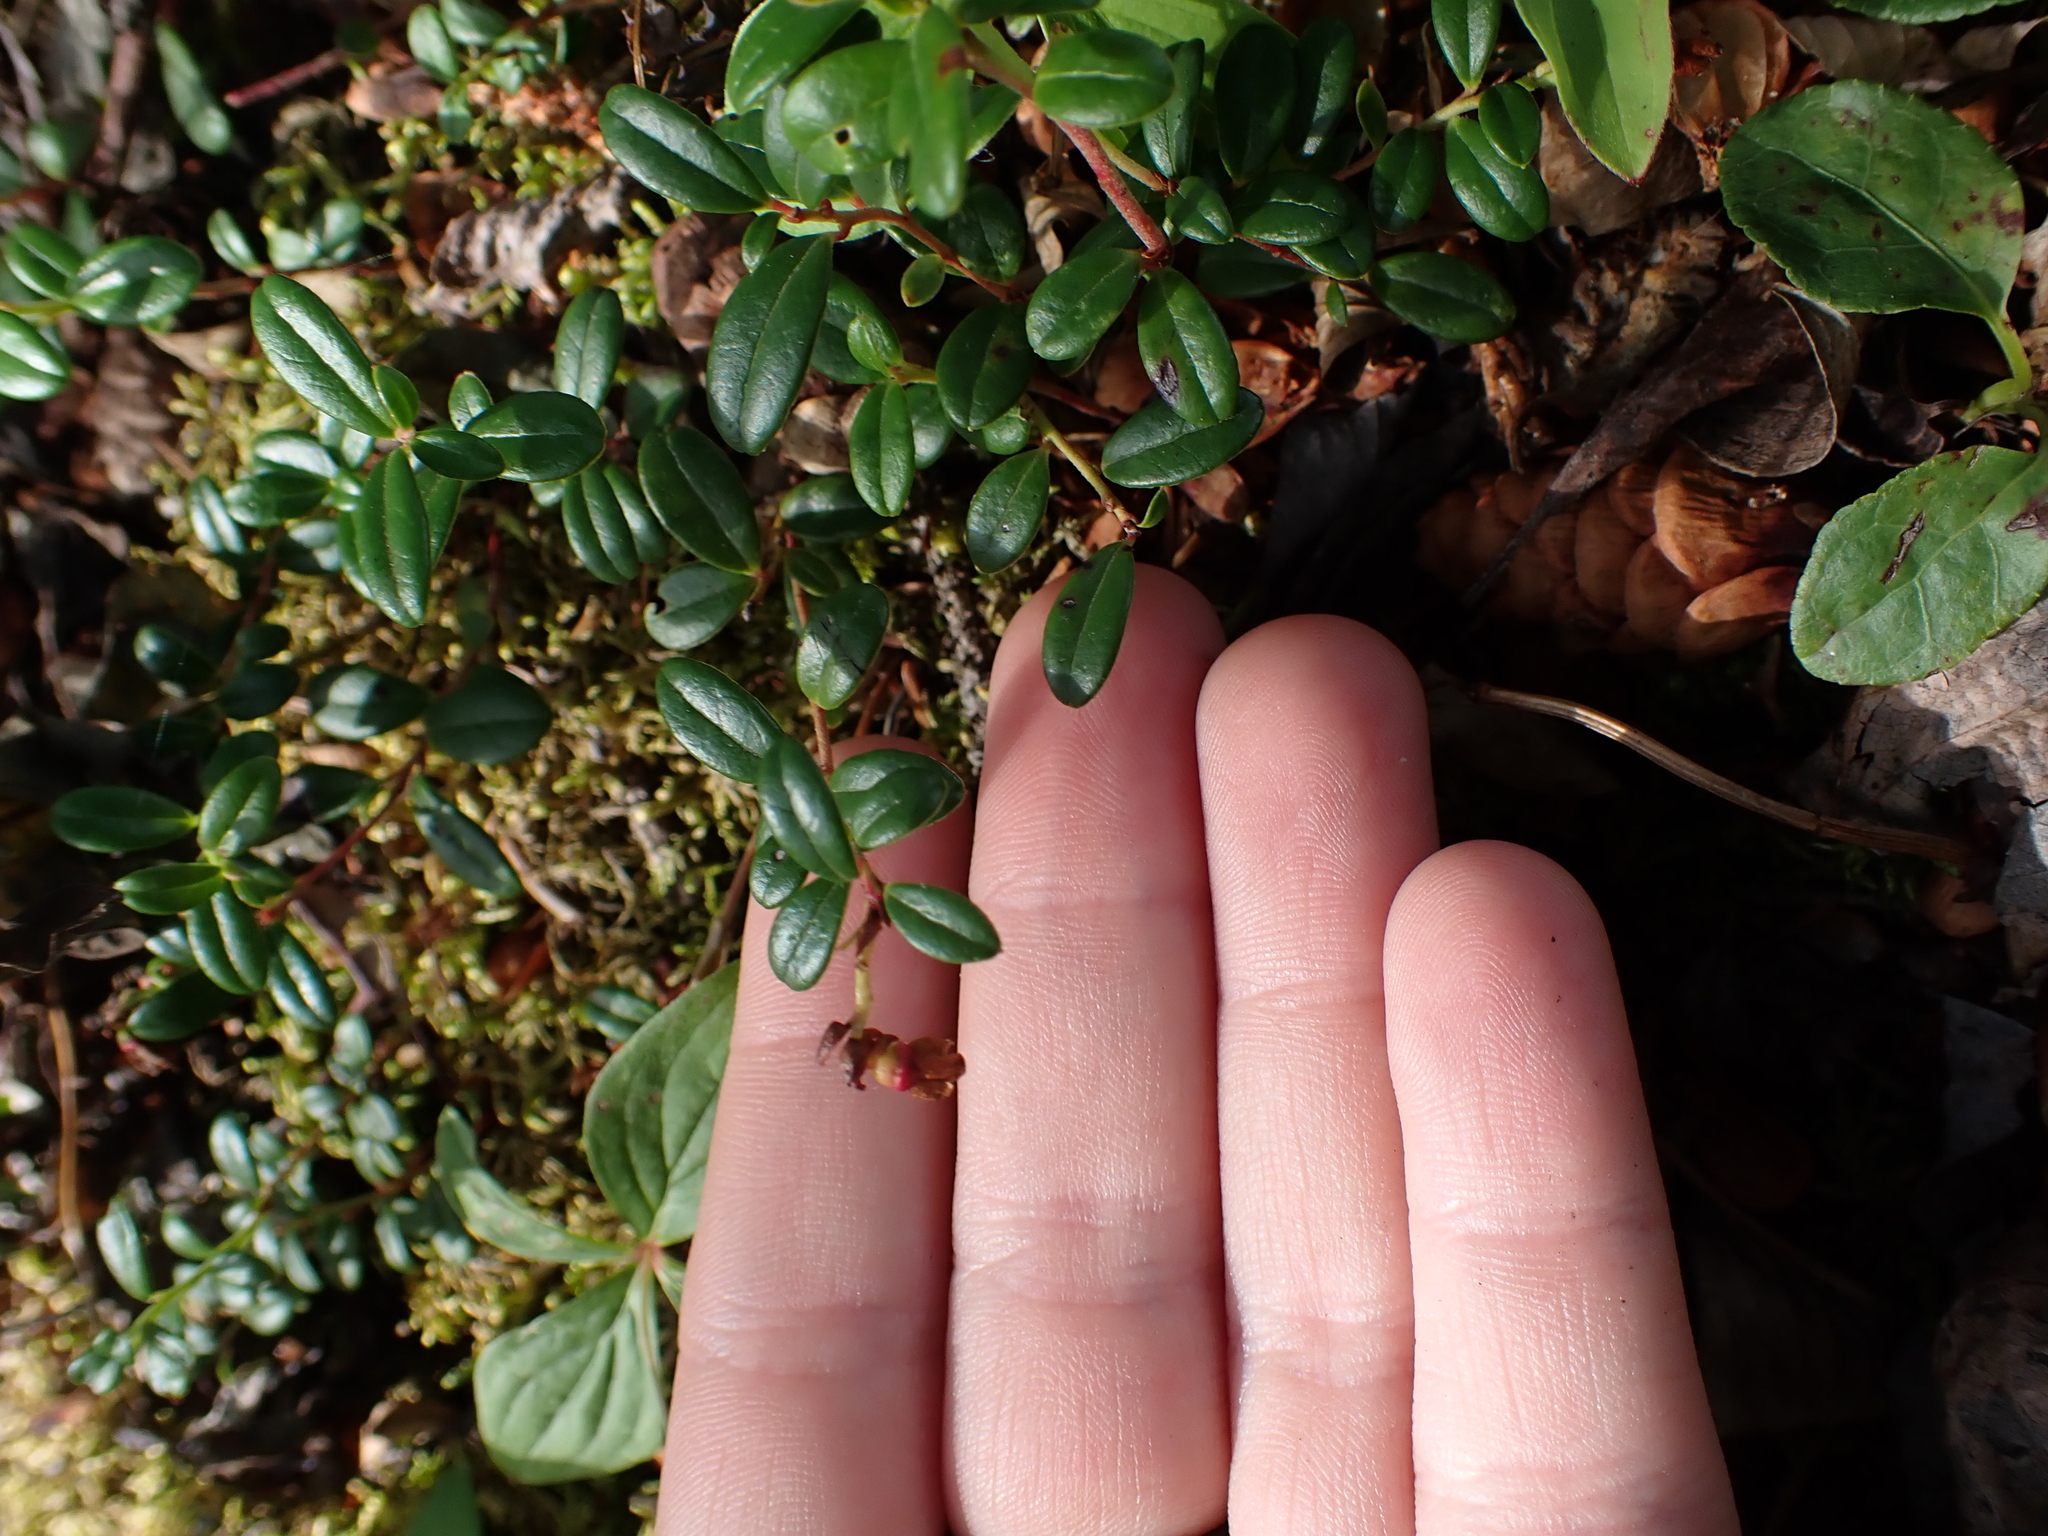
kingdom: Plantae
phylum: Tracheophyta
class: Magnoliopsida
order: Ericales
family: Ericaceae
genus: Vaccinium
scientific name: Vaccinium vitis-idaea
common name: Cowberry
